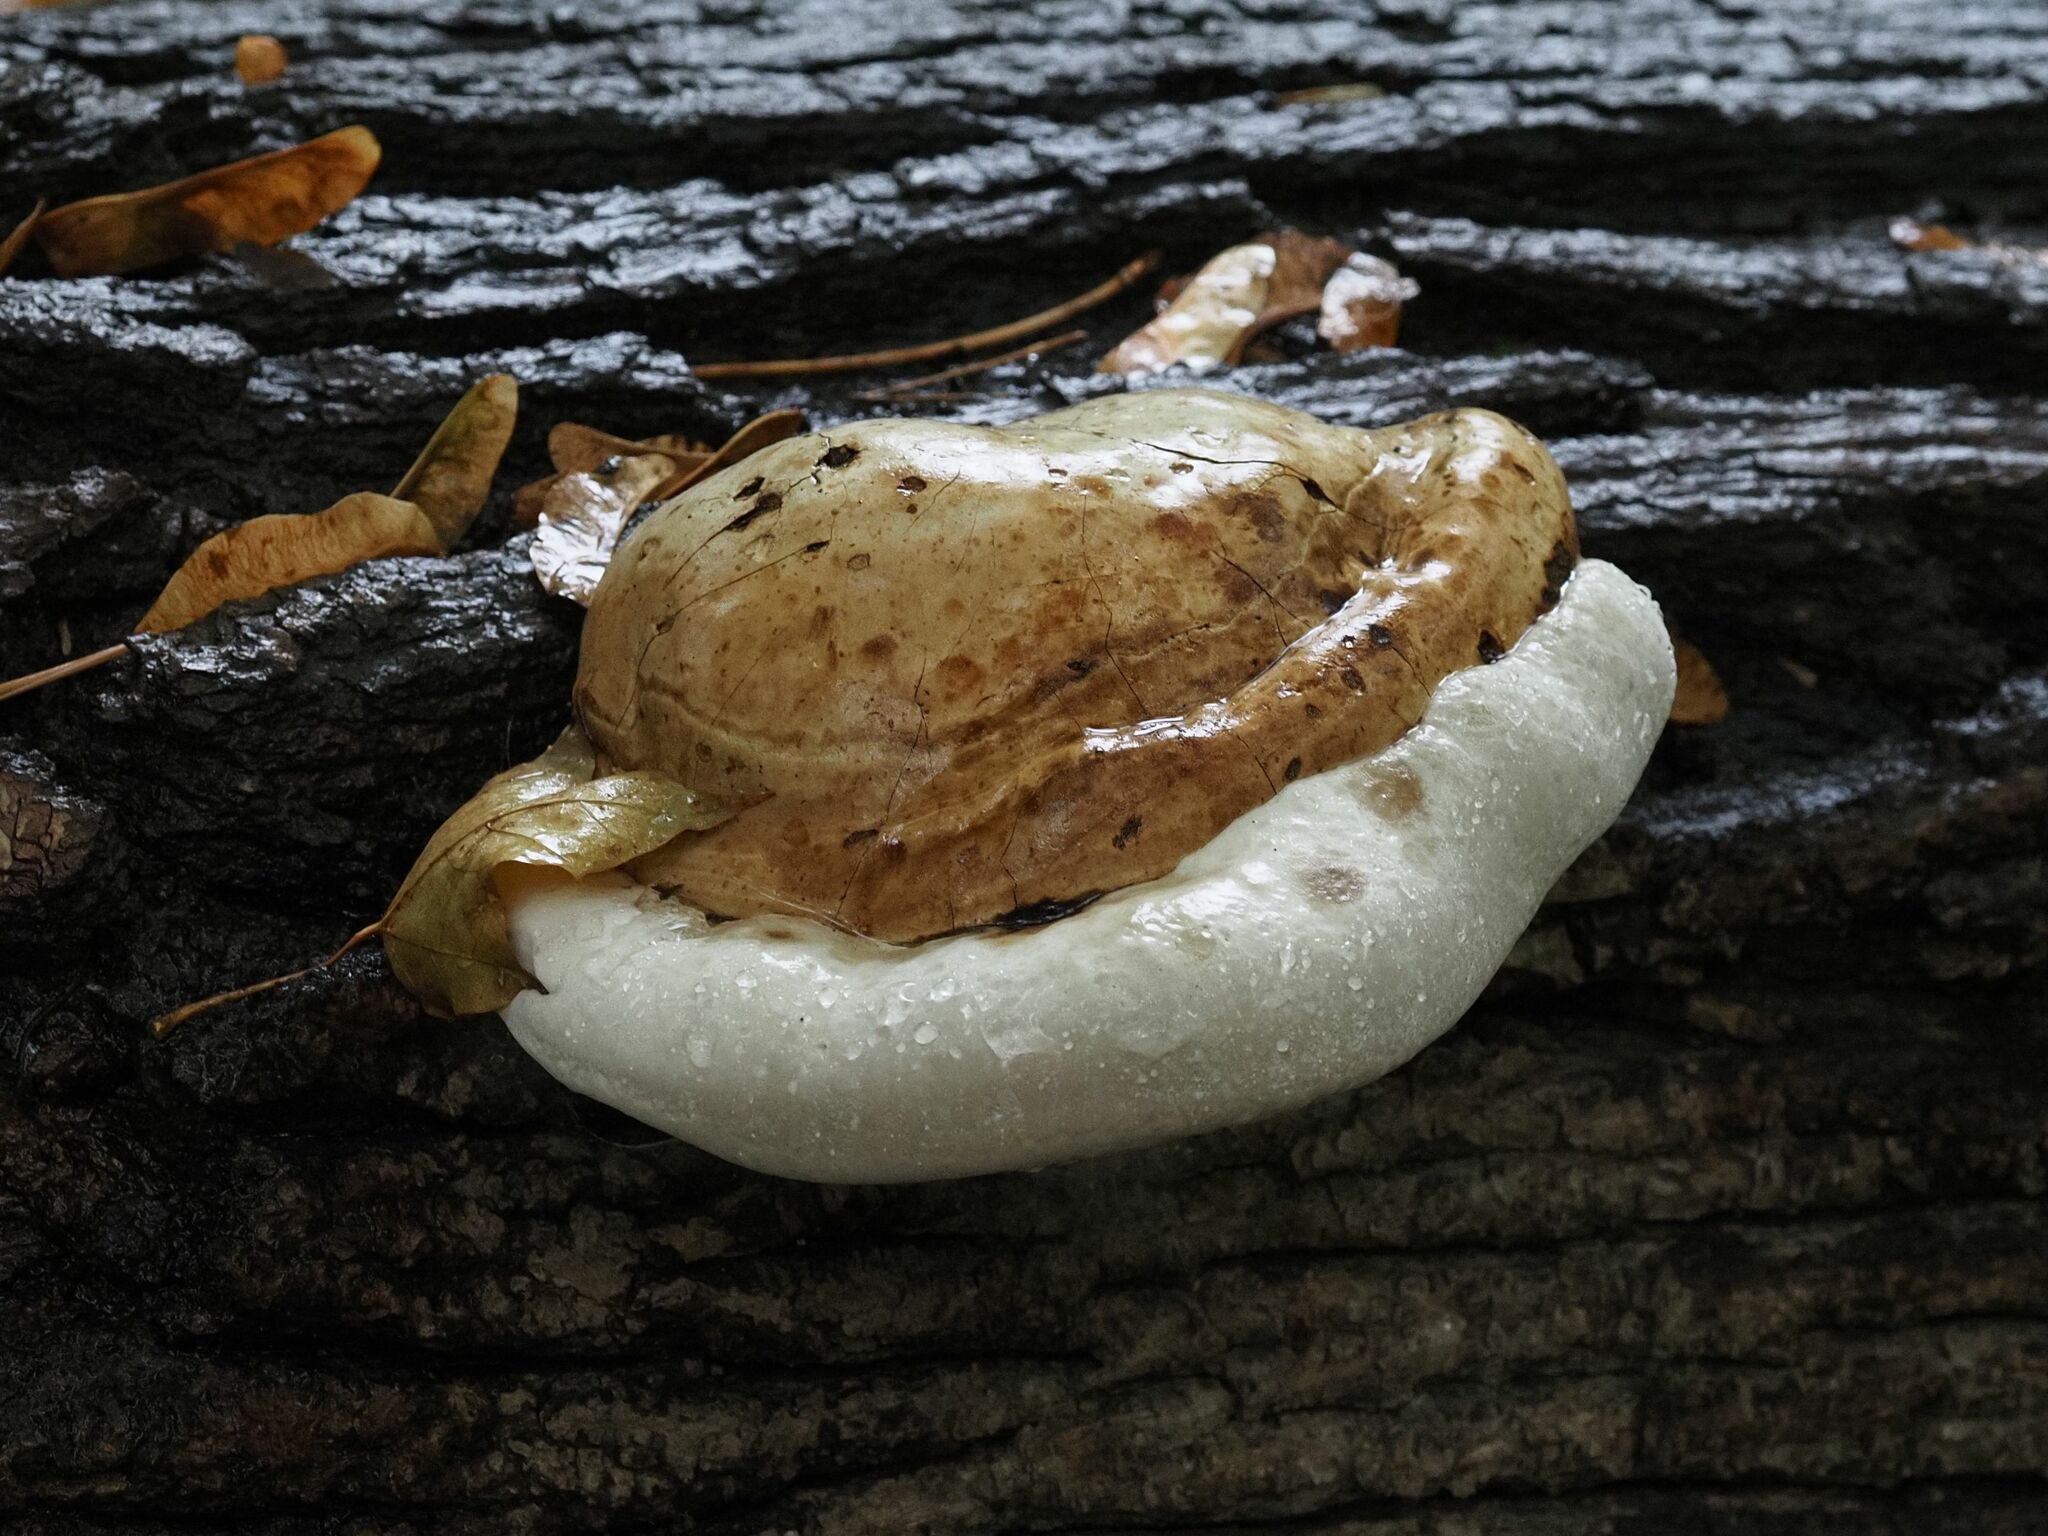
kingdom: Fungi
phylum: Basidiomycota
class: Agaricomycetes
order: Polyporales
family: Polyporaceae
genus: Fomes
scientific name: Fomes fomentarius
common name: Hoof fungus
